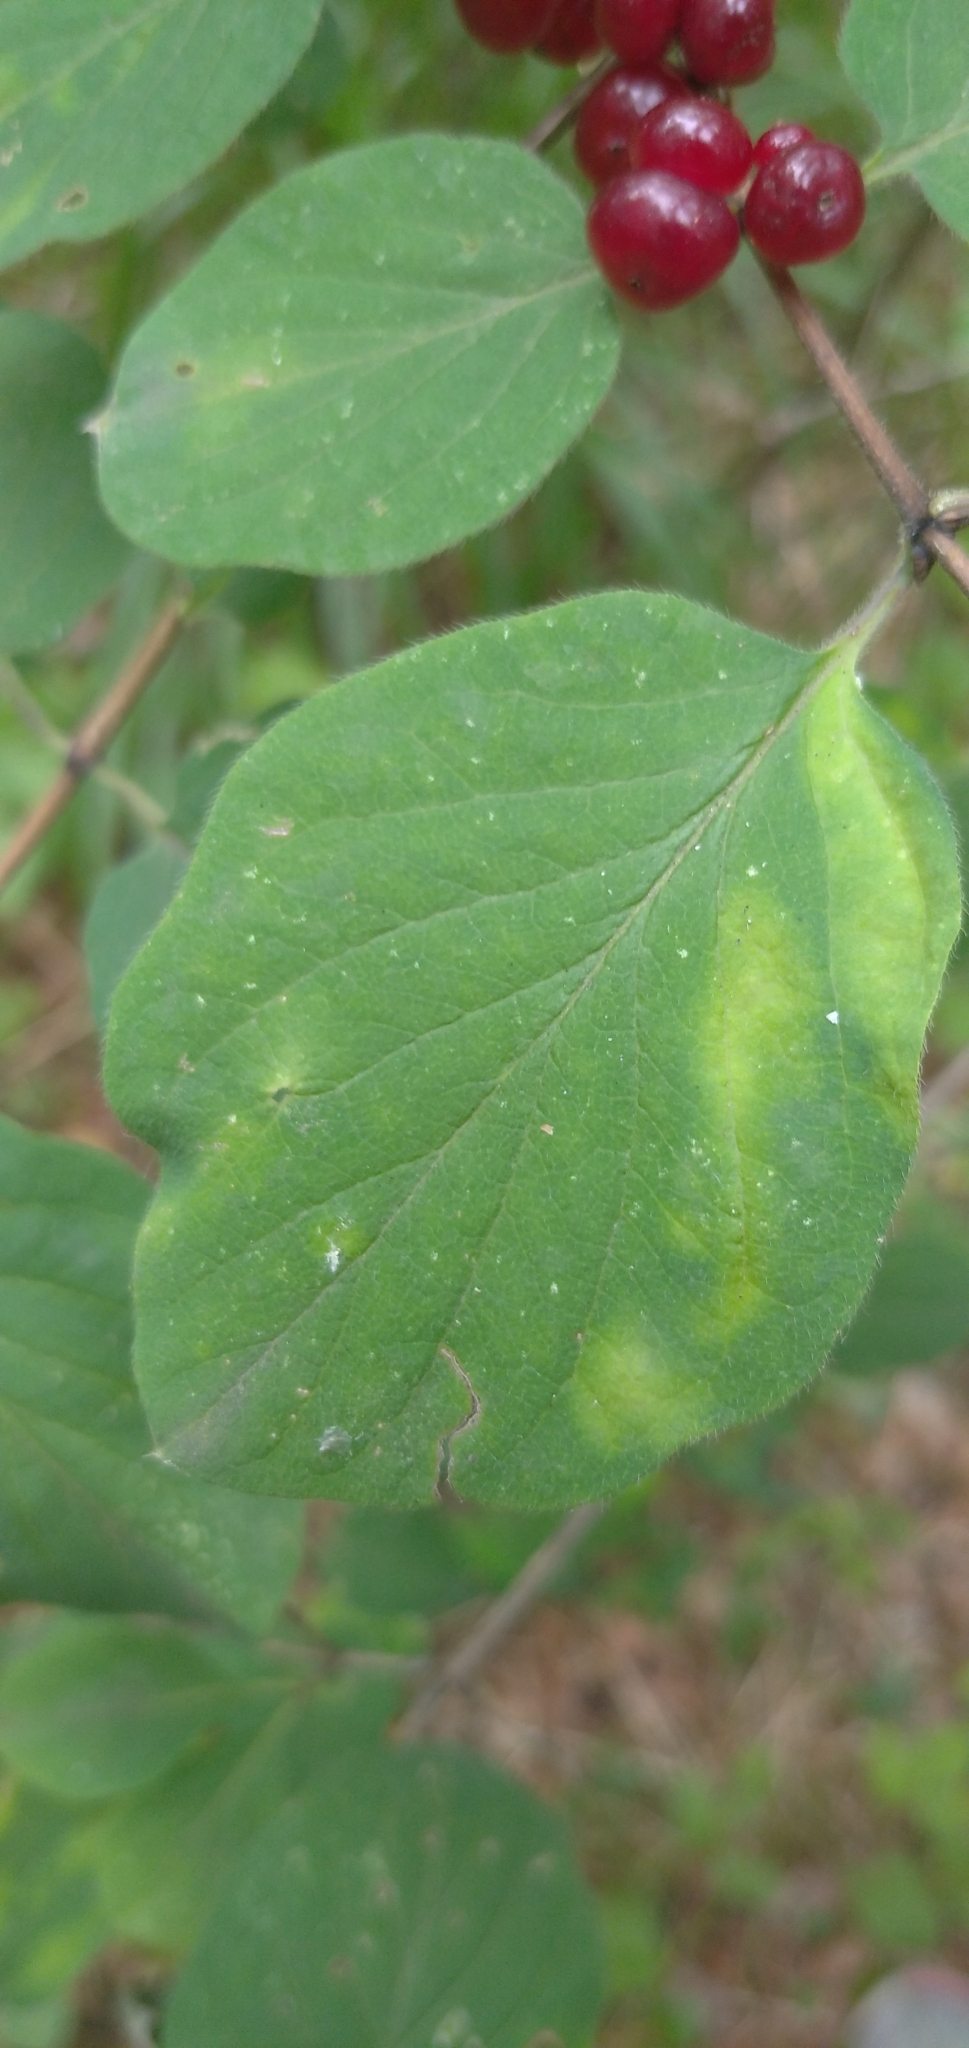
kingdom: Plantae
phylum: Tracheophyta
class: Magnoliopsida
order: Dipsacales
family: Caprifoliaceae
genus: Lonicera
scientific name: Lonicera xylosteum
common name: Fly honeysuckle
